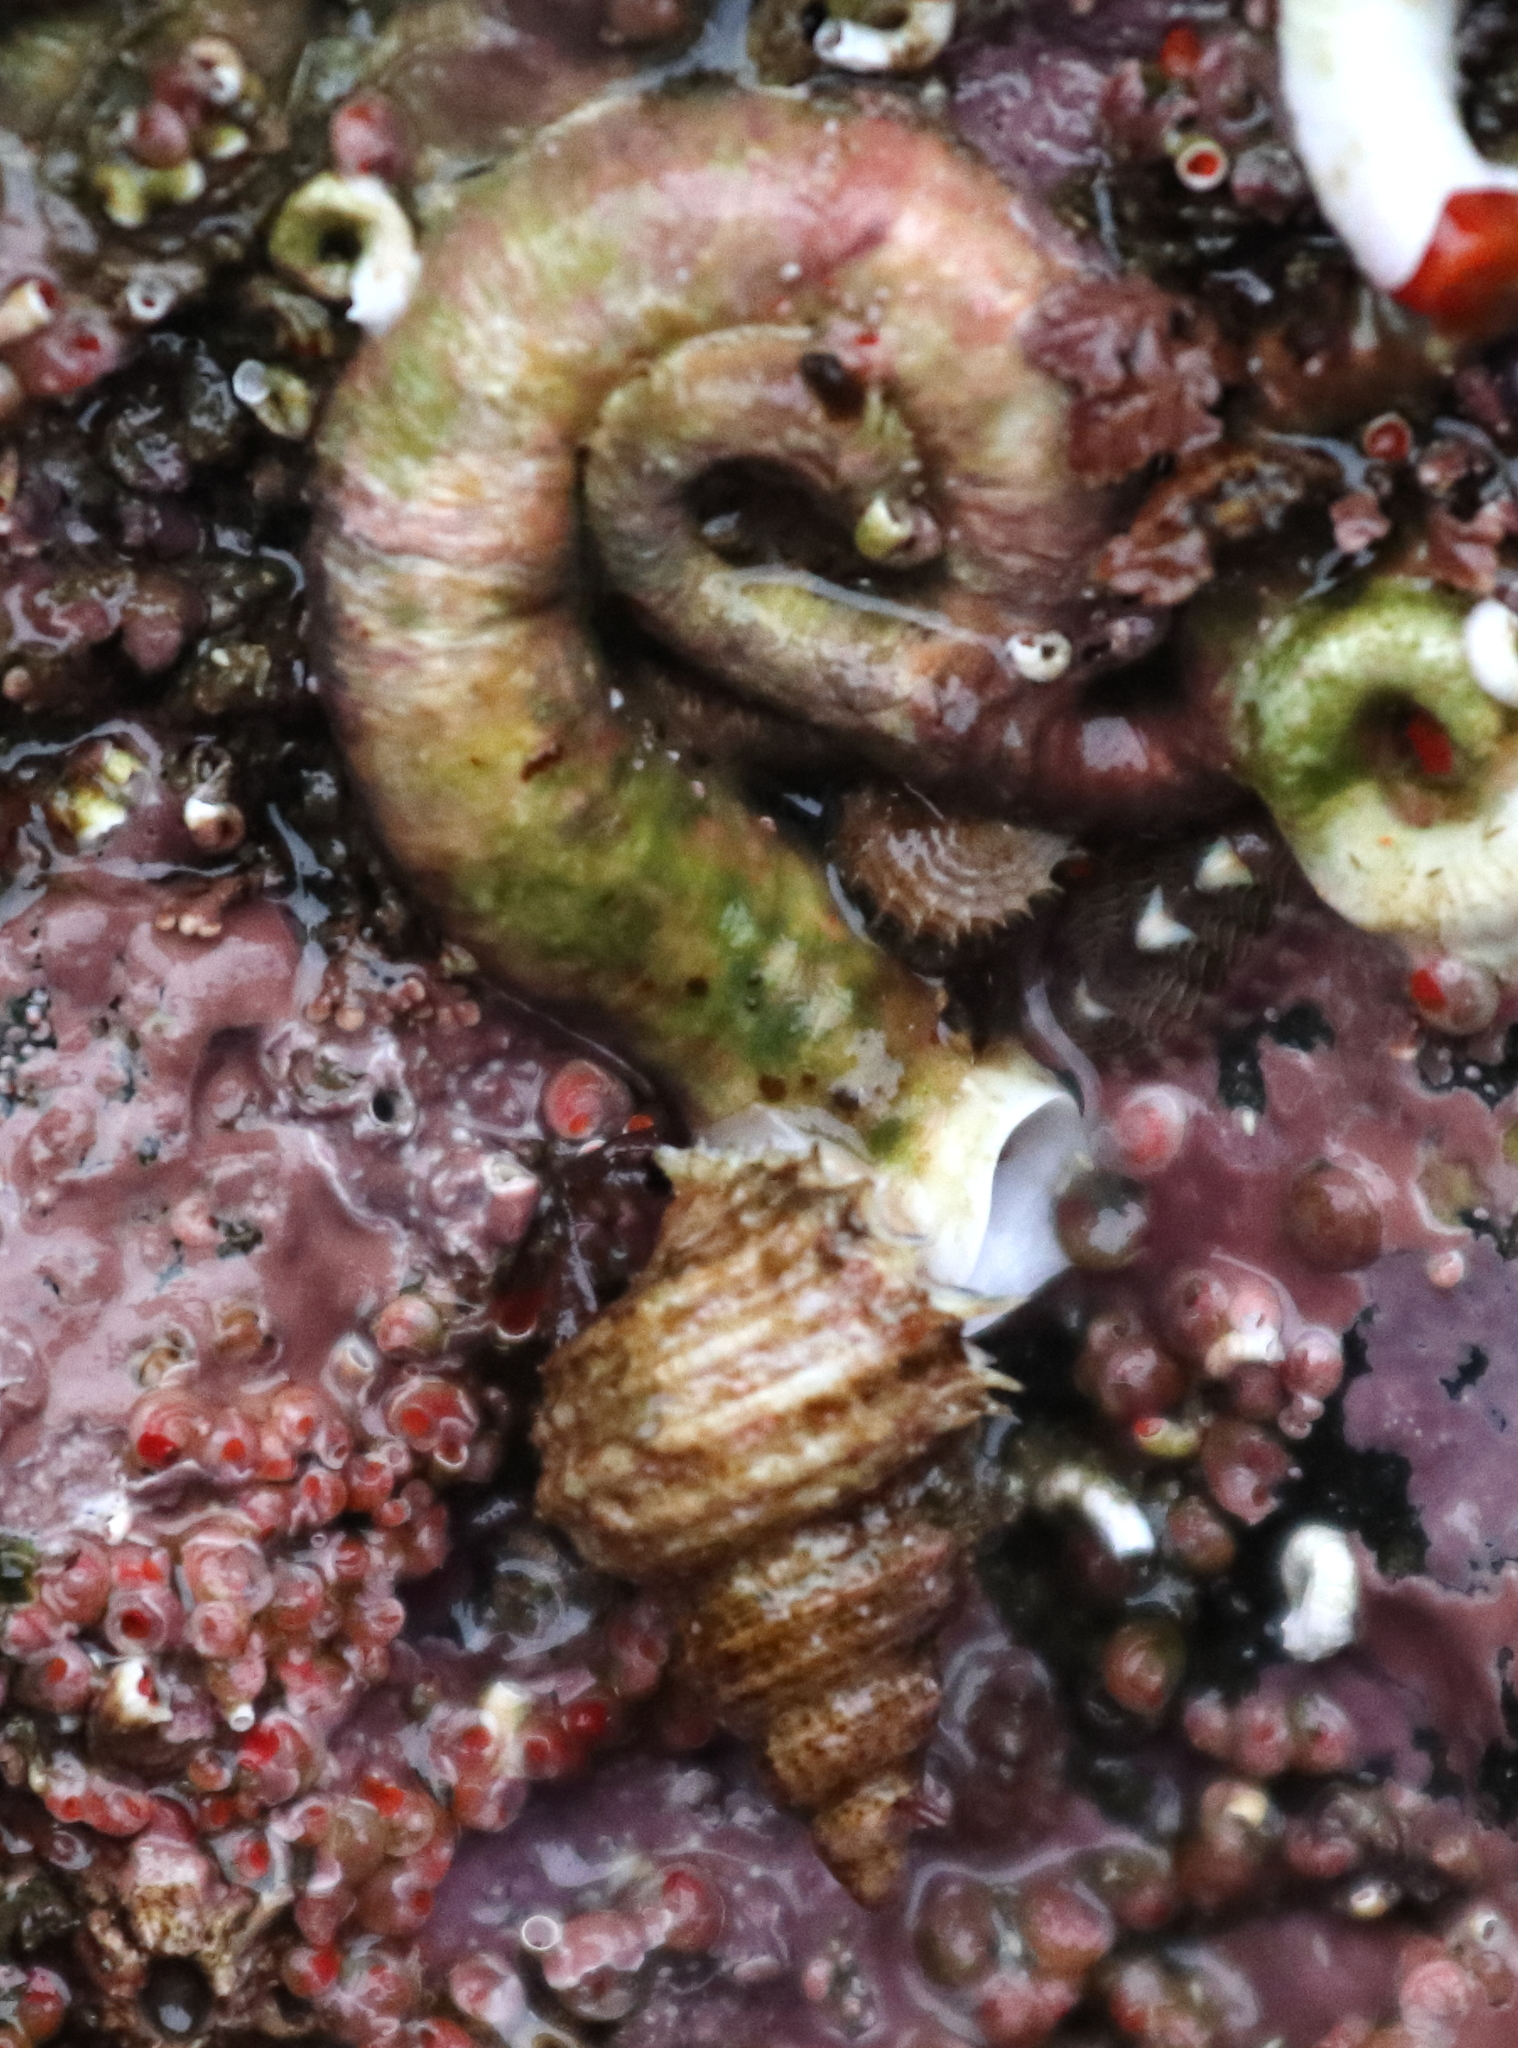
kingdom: Animalia
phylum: Mollusca
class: Gastropoda
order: Littorinimorpha
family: Capulidae
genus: Trichotropis
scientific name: Trichotropis cancellata
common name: Cancellate hairysnail
